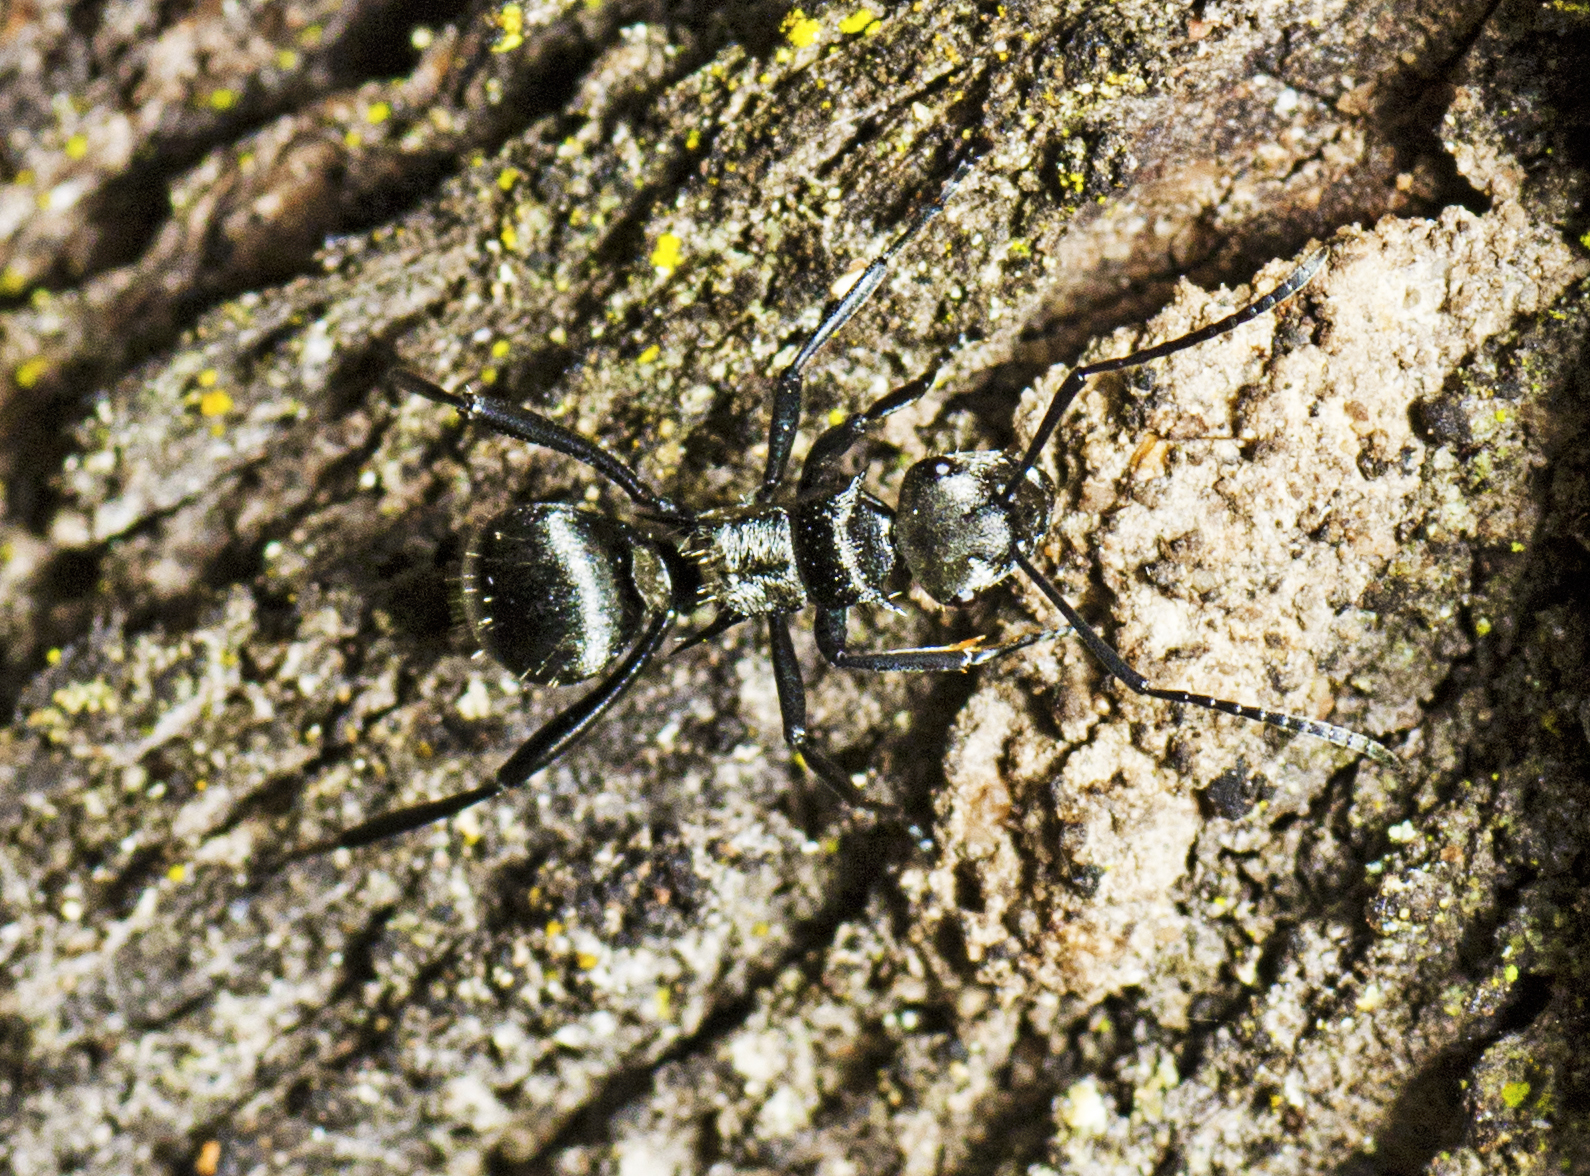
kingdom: Animalia
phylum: Arthropoda
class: Insecta
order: Hymenoptera
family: Formicidae
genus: Polyrhachis
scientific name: Polyrhachis daemeli
